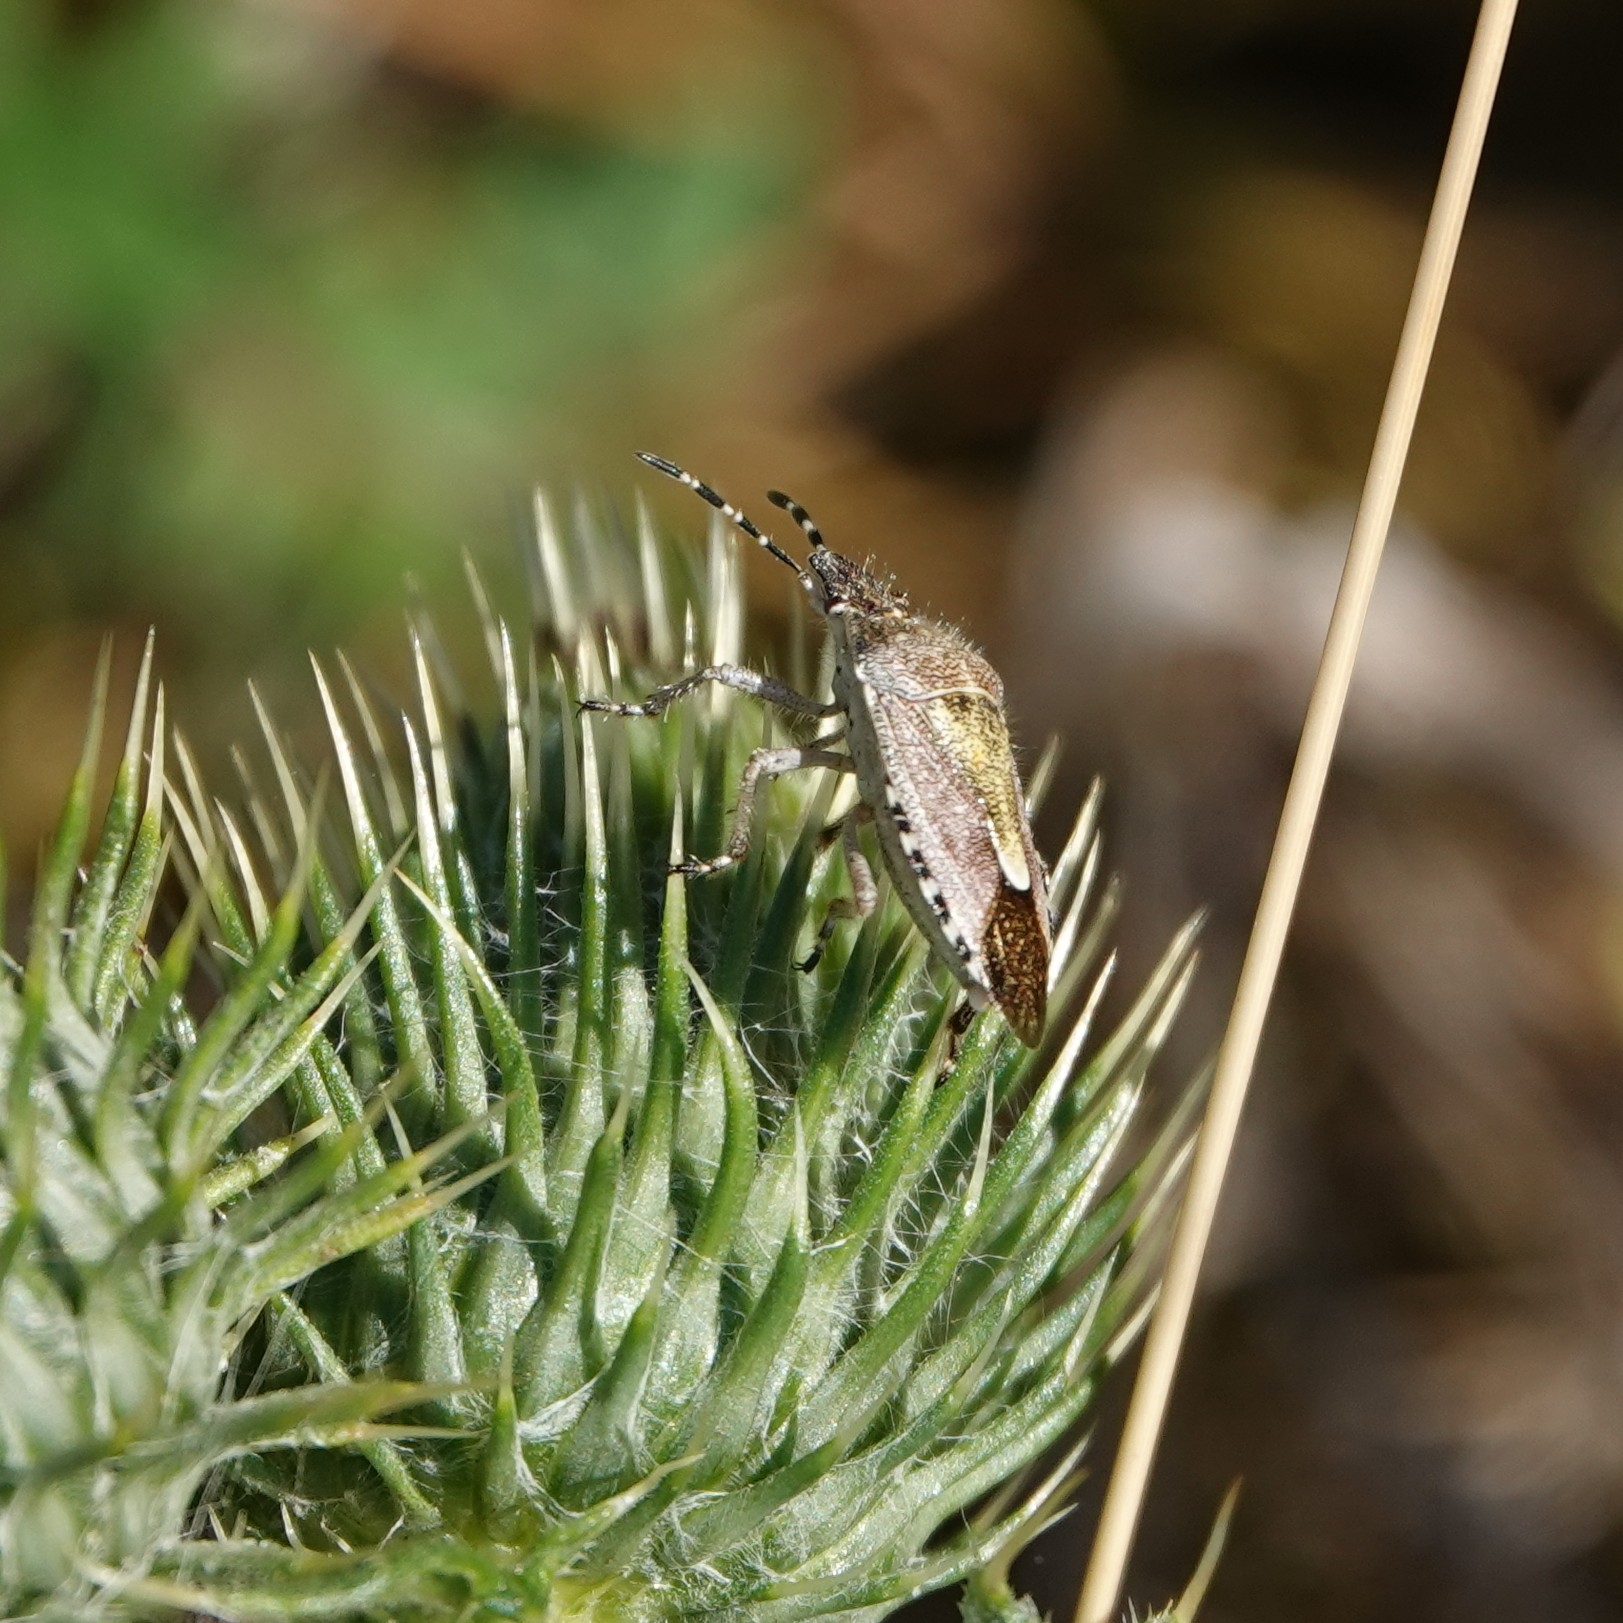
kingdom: Animalia
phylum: Arthropoda
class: Insecta
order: Hemiptera
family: Pentatomidae
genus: Dolycoris
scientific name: Dolycoris baccarum
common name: Sloe bug
